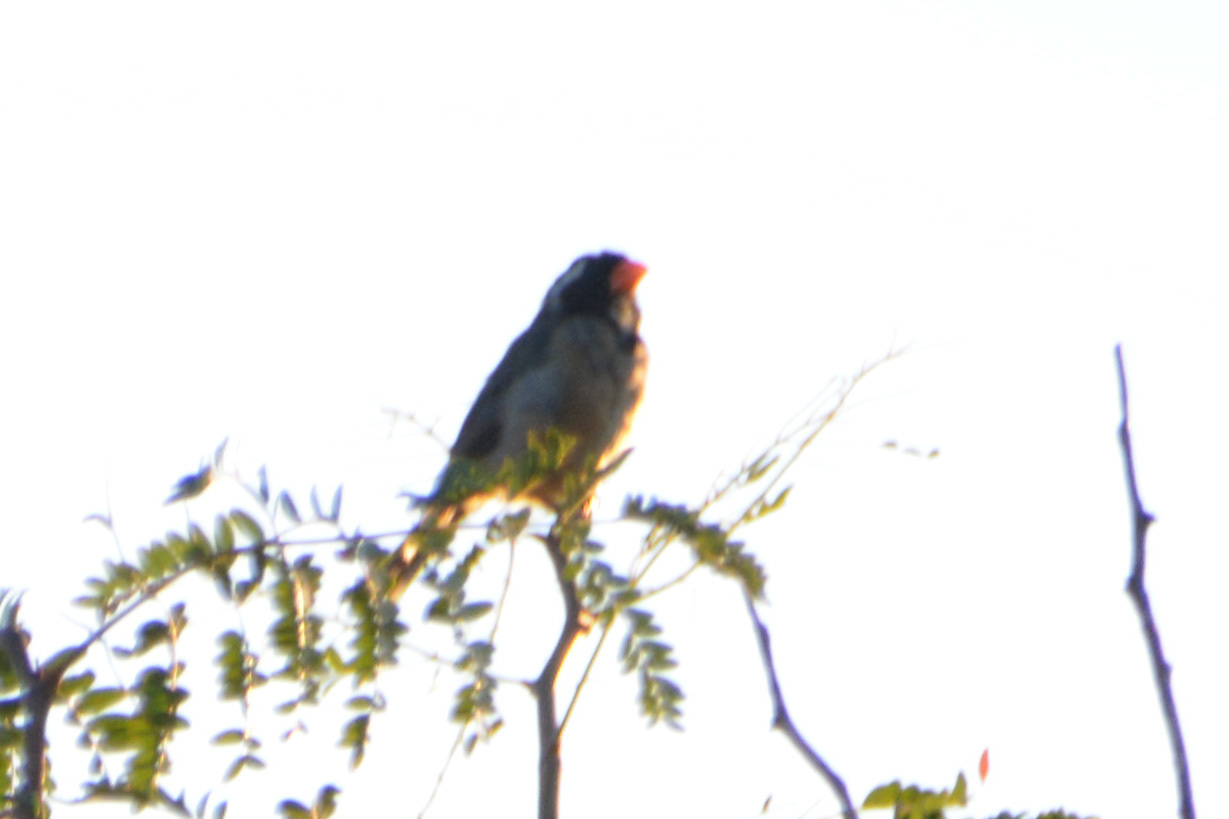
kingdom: Animalia
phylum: Chordata
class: Aves
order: Passeriformes
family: Thraupidae
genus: Saltator
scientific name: Saltator aurantiirostris
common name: Golden-billed saltator
